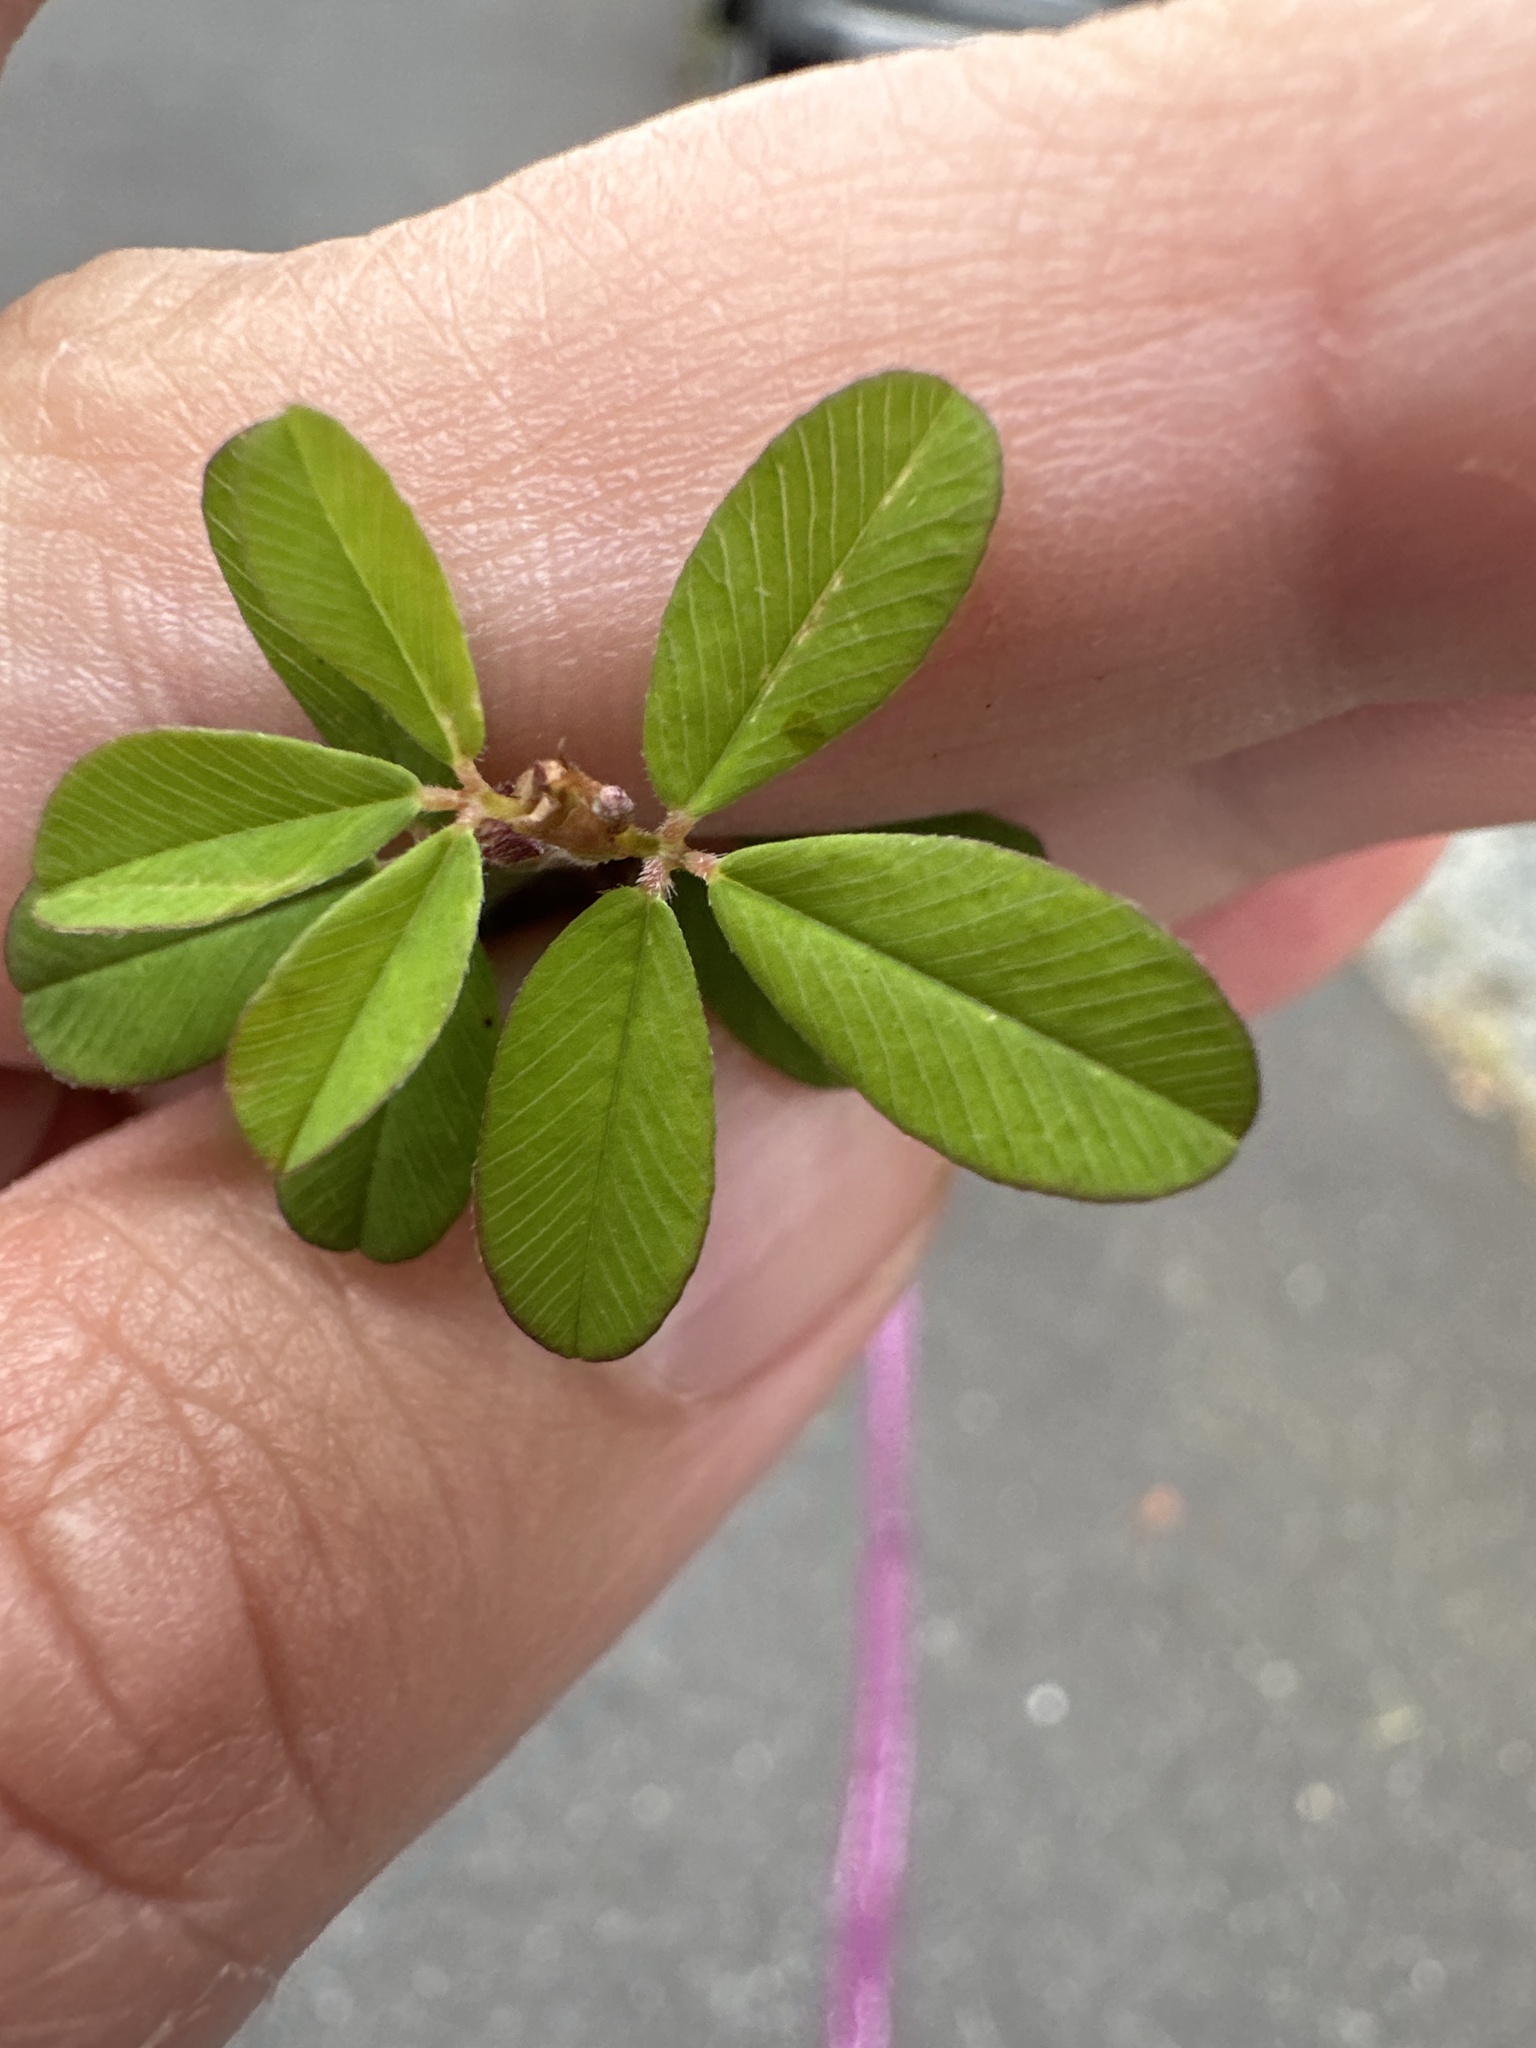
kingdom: Plantae
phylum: Tracheophyta
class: Magnoliopsida
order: Fabales
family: Fabaceae
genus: Kummerowia
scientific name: Kummerowia striata
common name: Japanese clover
